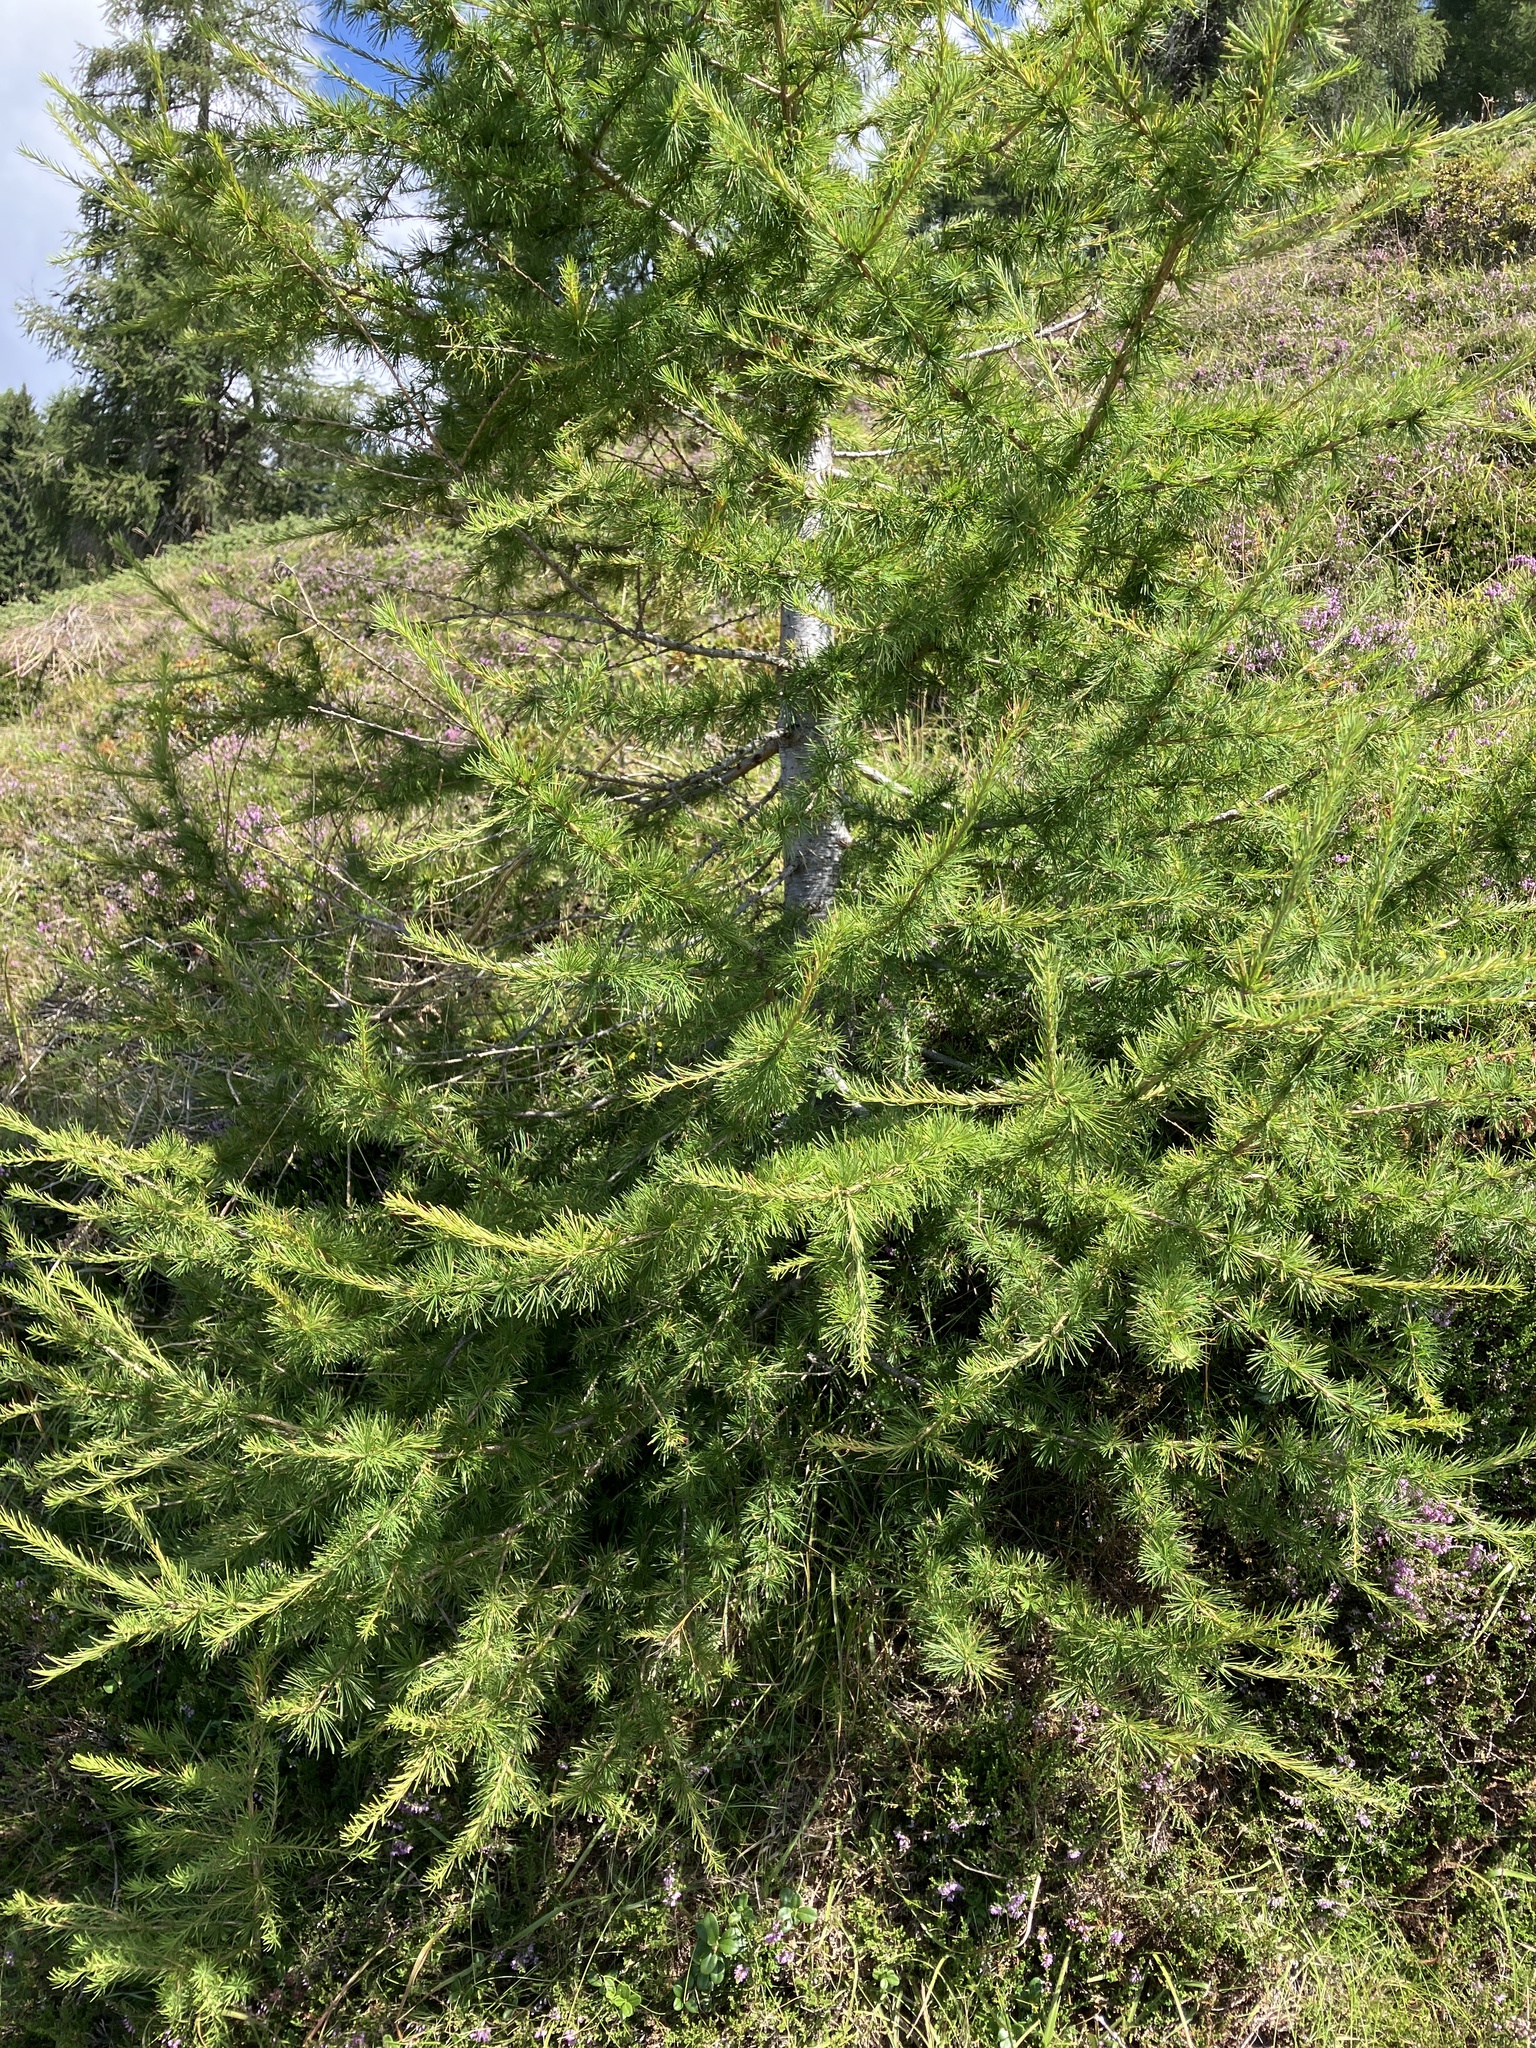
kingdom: Plantae
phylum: Tracheophyta
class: Pinopsida
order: Pinales
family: Pinaceae
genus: Larix
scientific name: Larix decidua
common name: European larch
